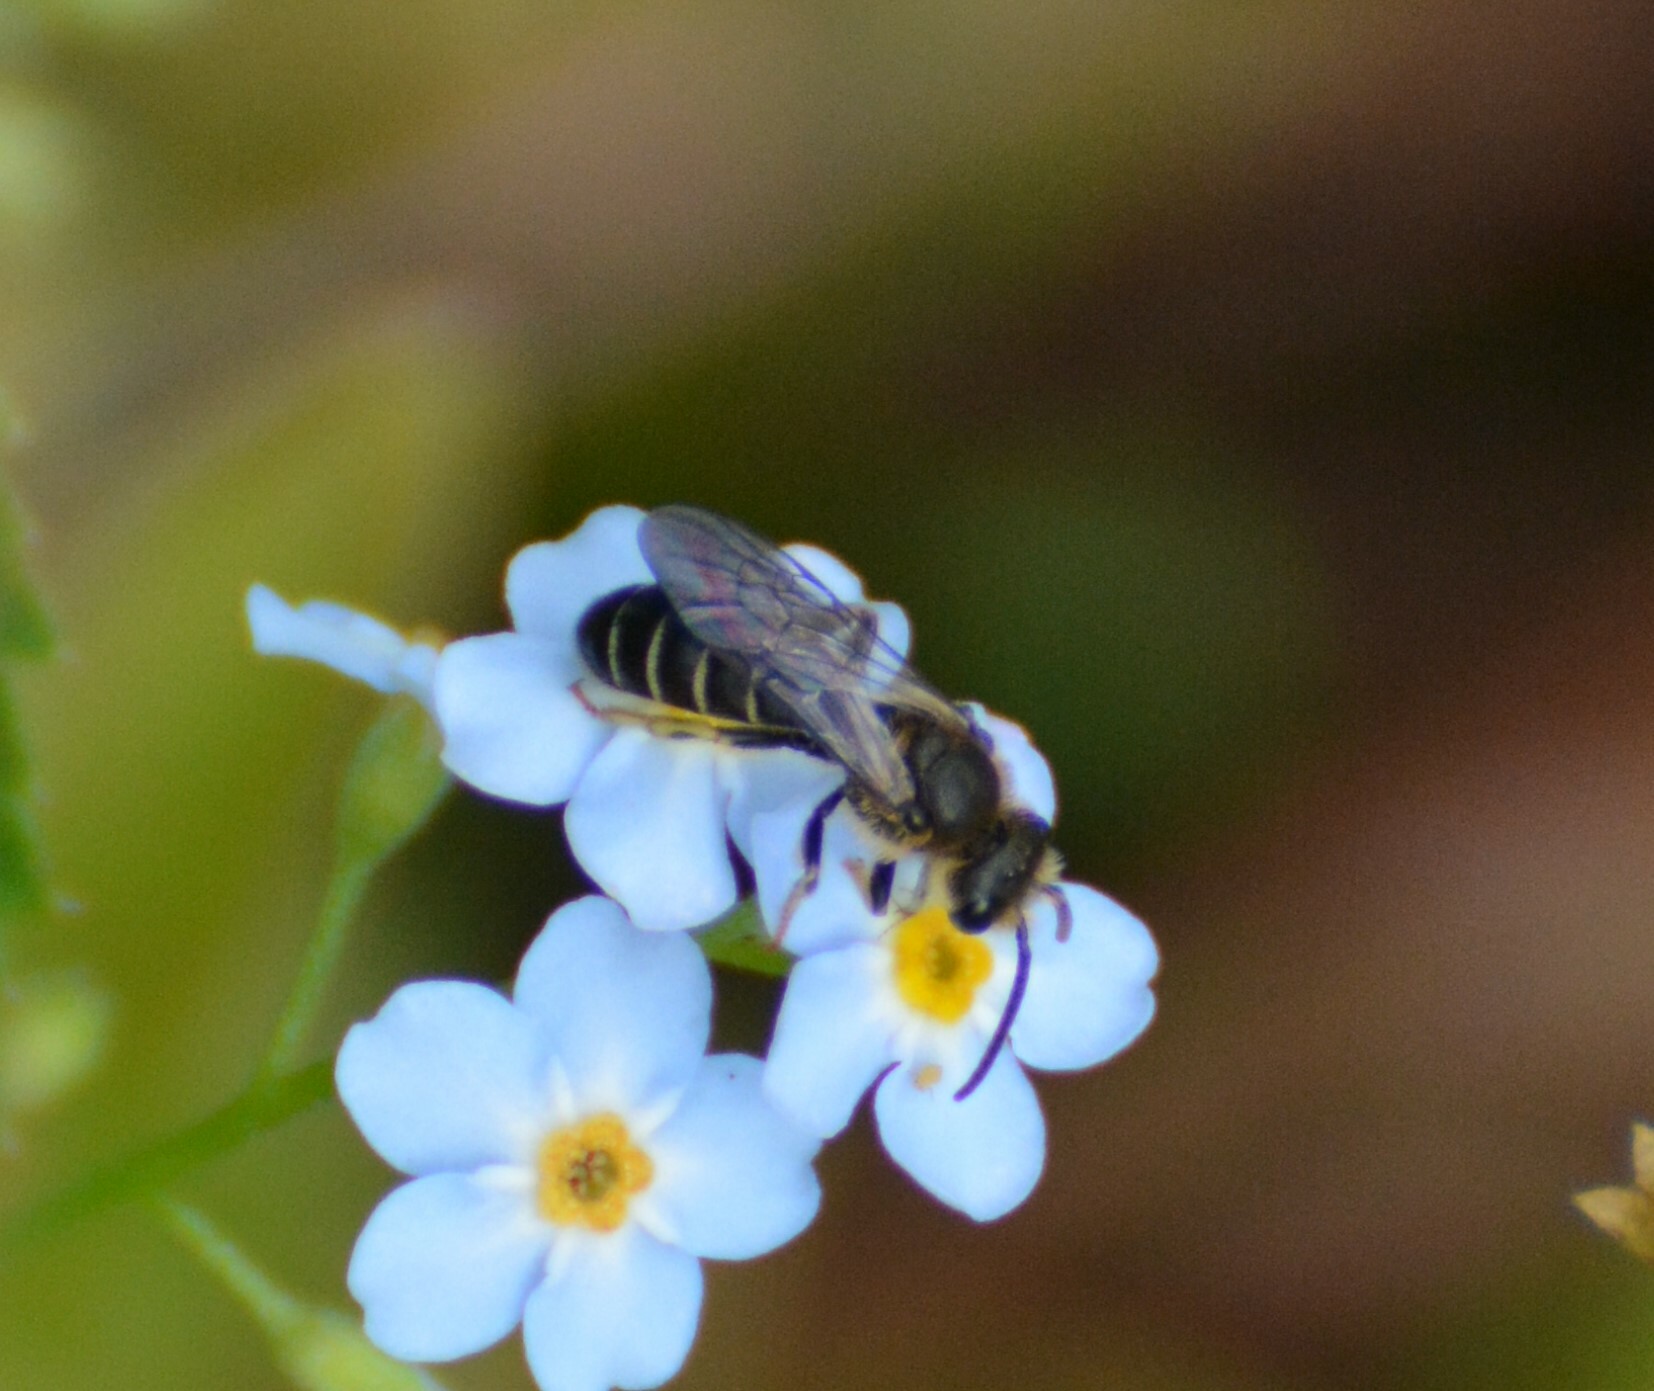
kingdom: Animalia
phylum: Arthropoda
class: Insecta
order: Hymenoptera
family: Halictidae
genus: Halictus
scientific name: Halictus rubicundus
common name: Orange-legged furrow bee
